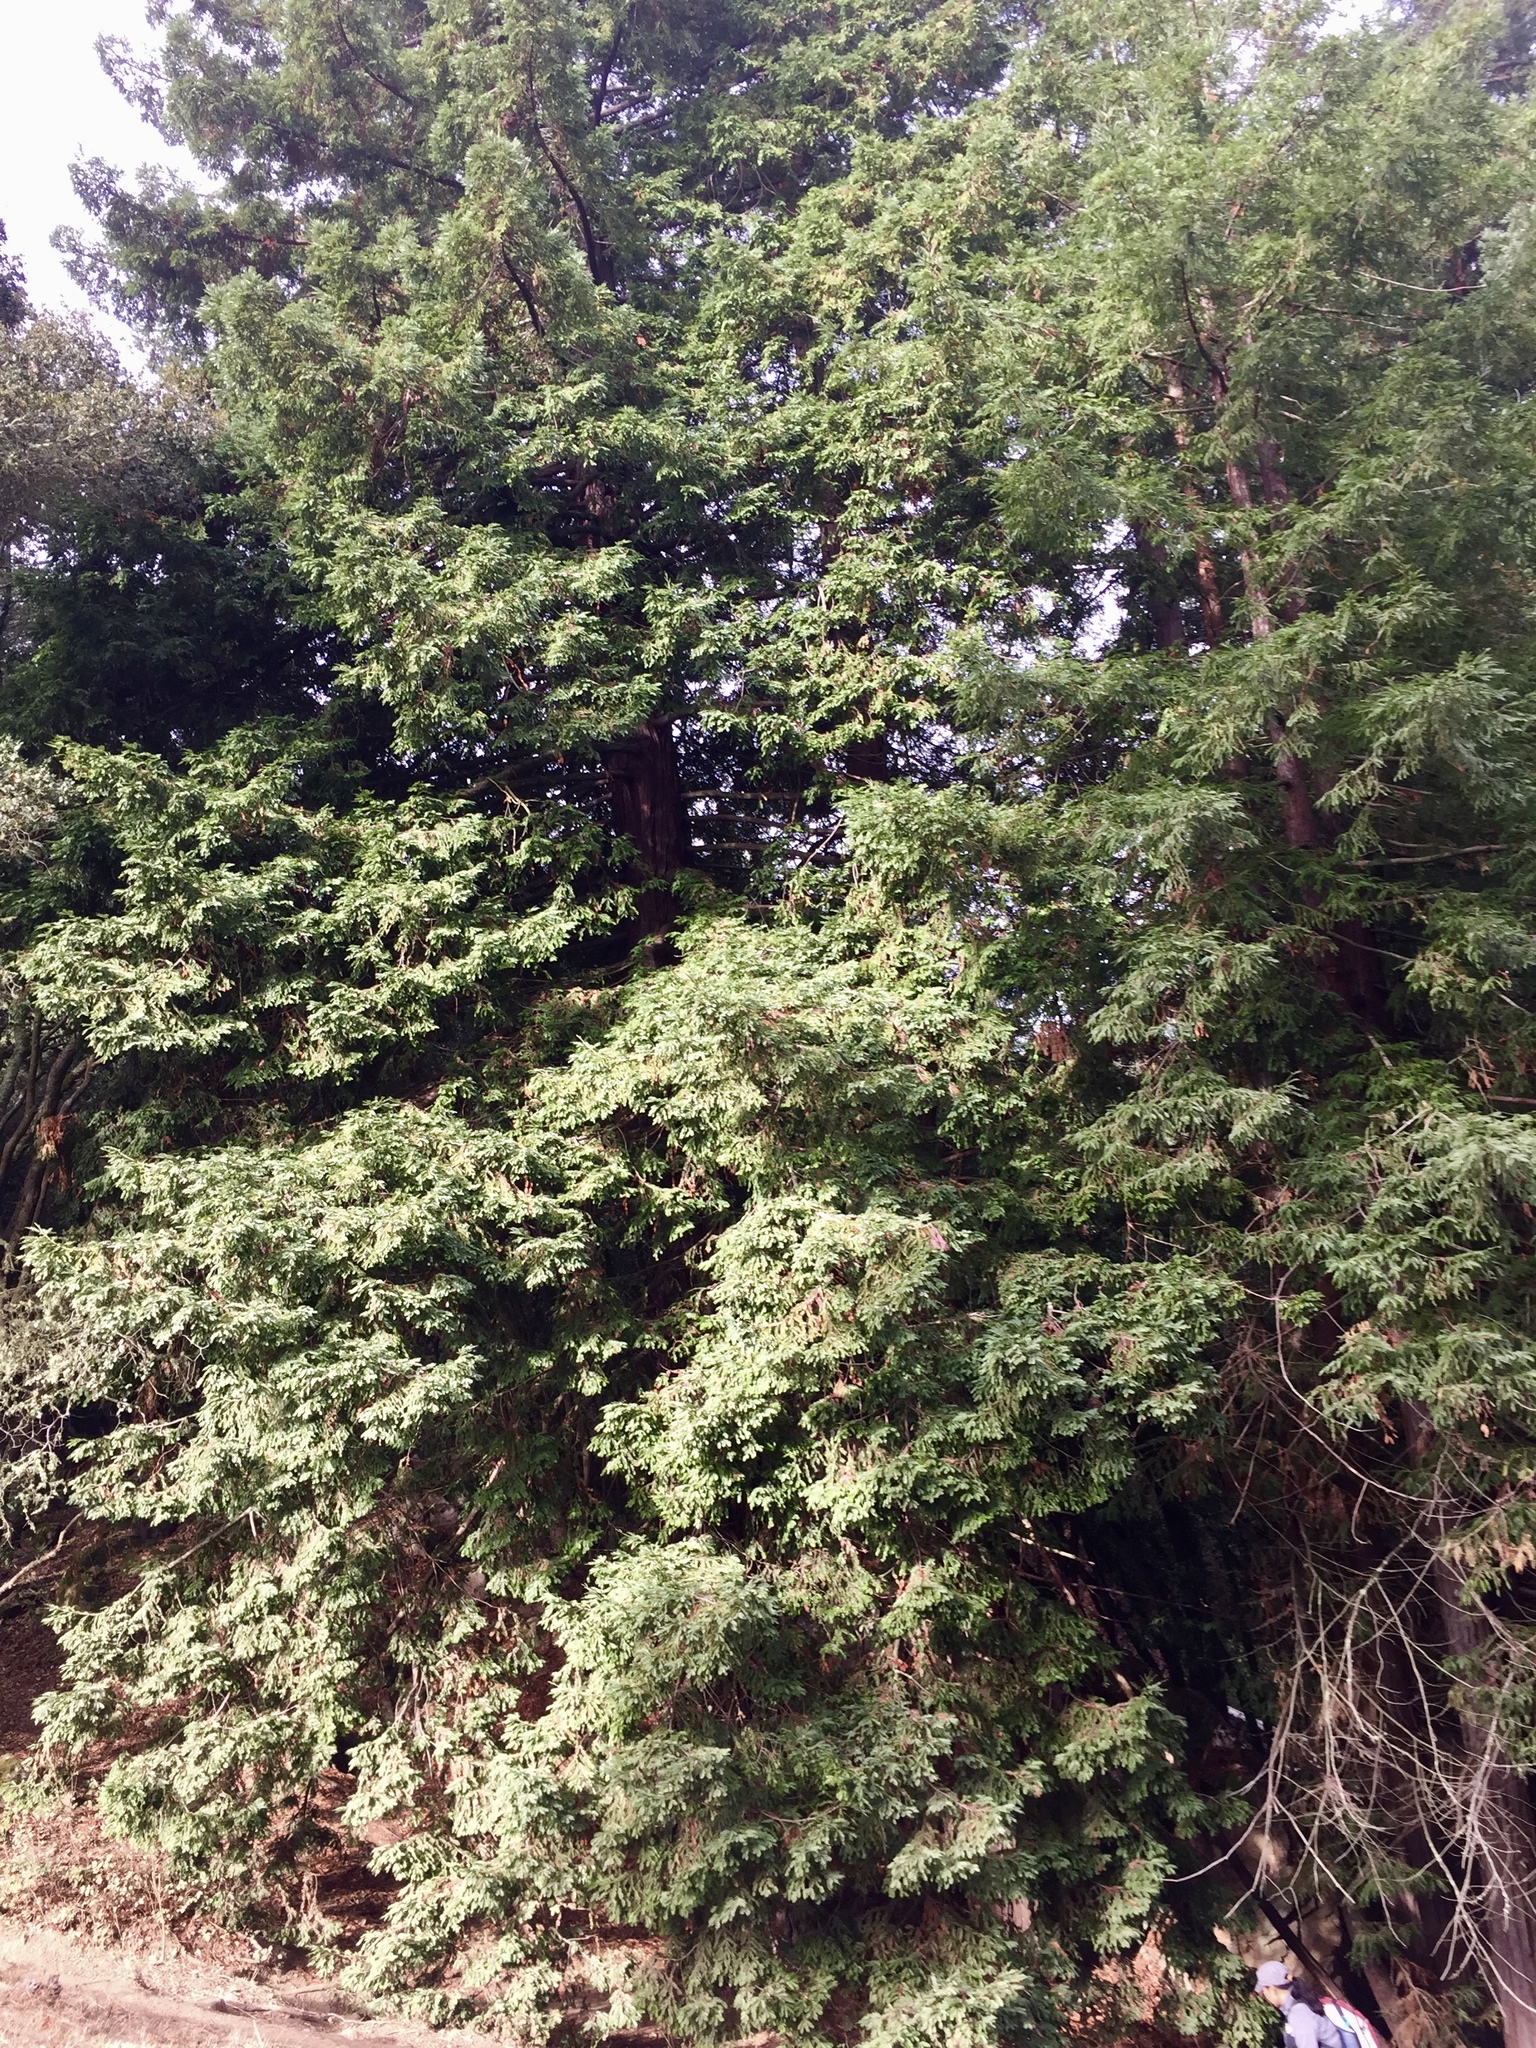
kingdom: Plantae
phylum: Tracheophyta
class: Pinopsida
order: Pinales
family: Cupressaceae
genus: Sequoia
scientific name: Sequoia sempervirens
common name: Coast redwood
